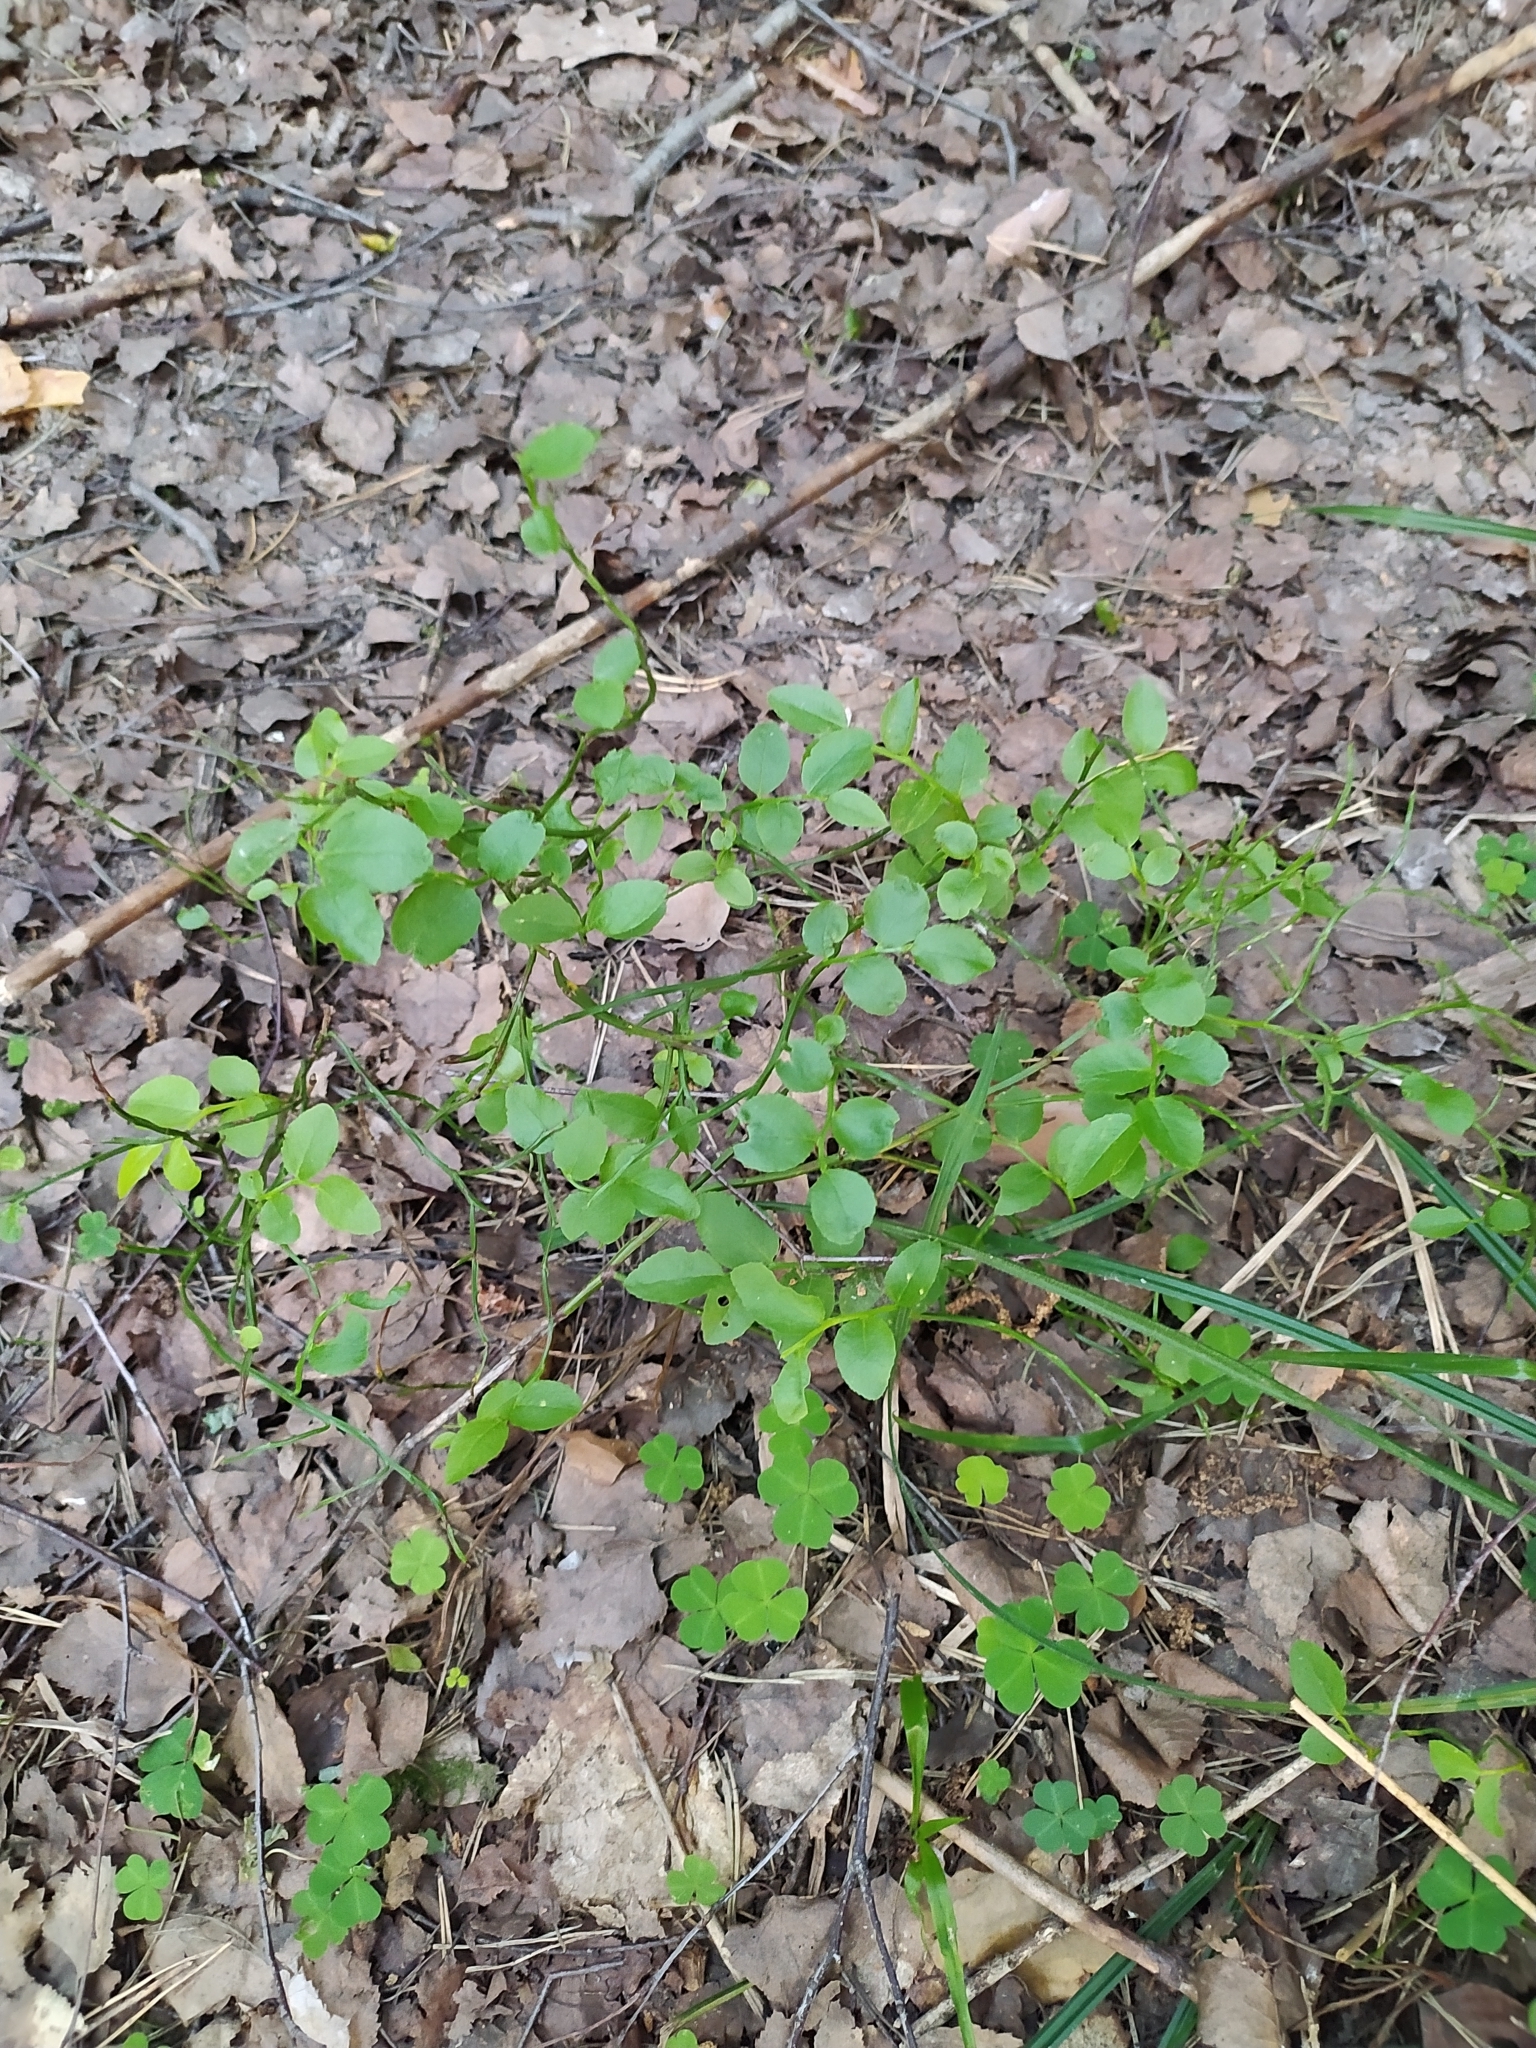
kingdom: Plantae
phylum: Tracheophyta
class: Magnoliopsida
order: Ericales
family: Ericaceae
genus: Vaccinium
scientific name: Vaccinium myrtillus
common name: Bilberry
